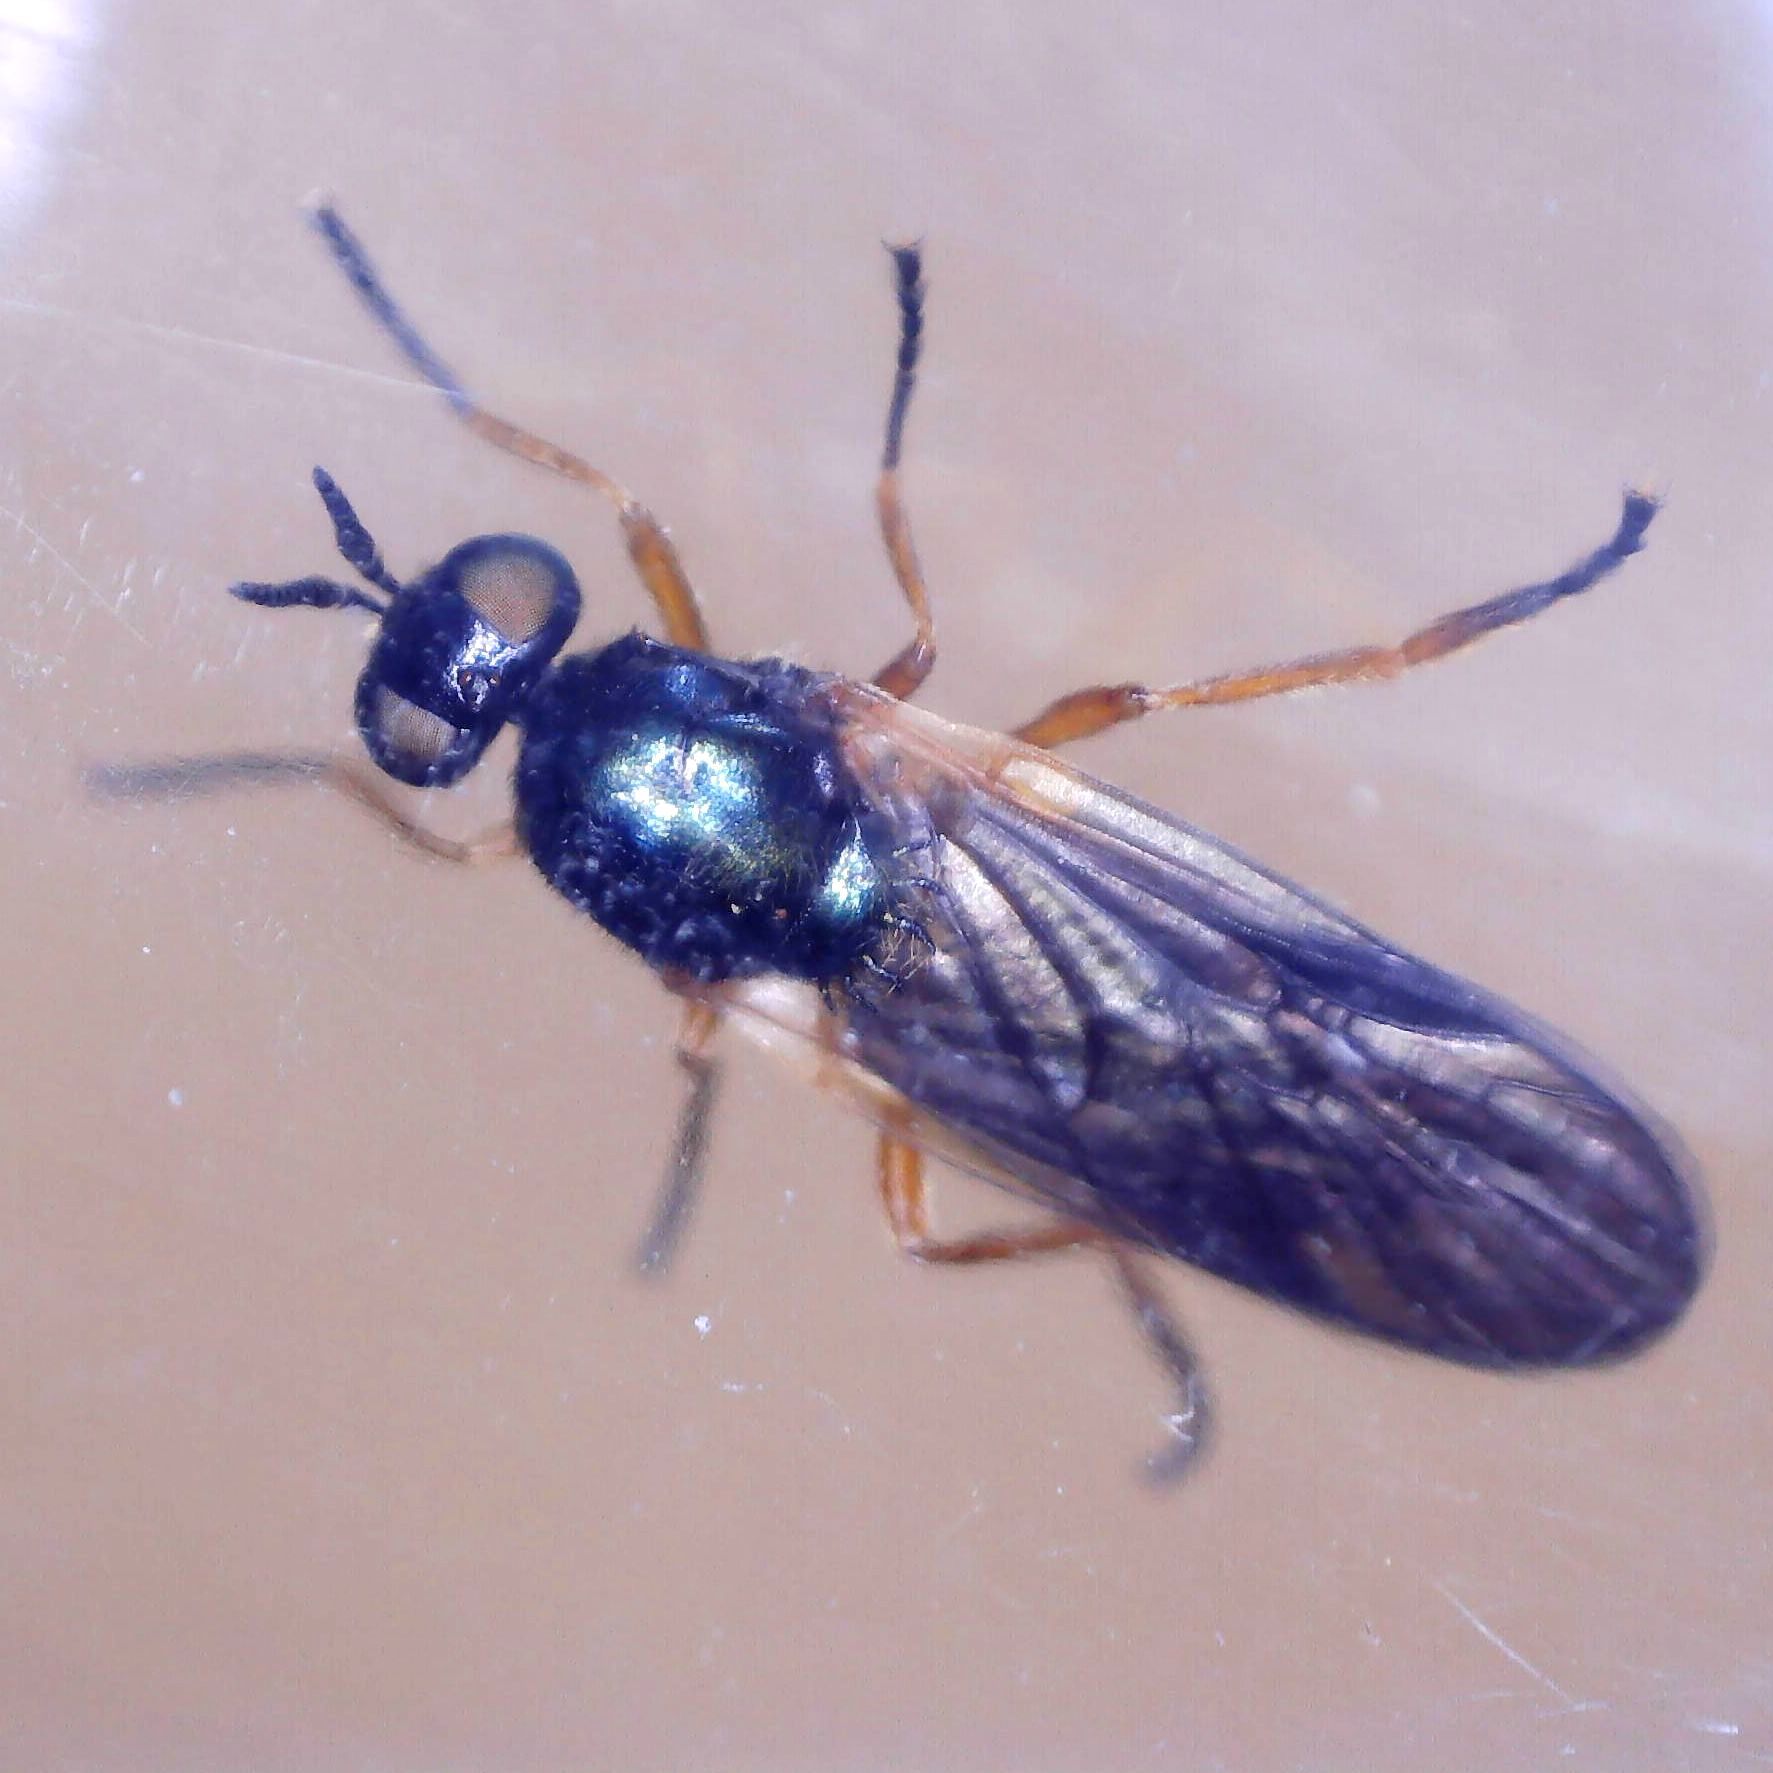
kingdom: Animalia
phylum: Arthropoda
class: Insecta
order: Diptera
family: Stratiomyidae
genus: Beris
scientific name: Beris chalybata
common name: Murky-legged black legionnaire
